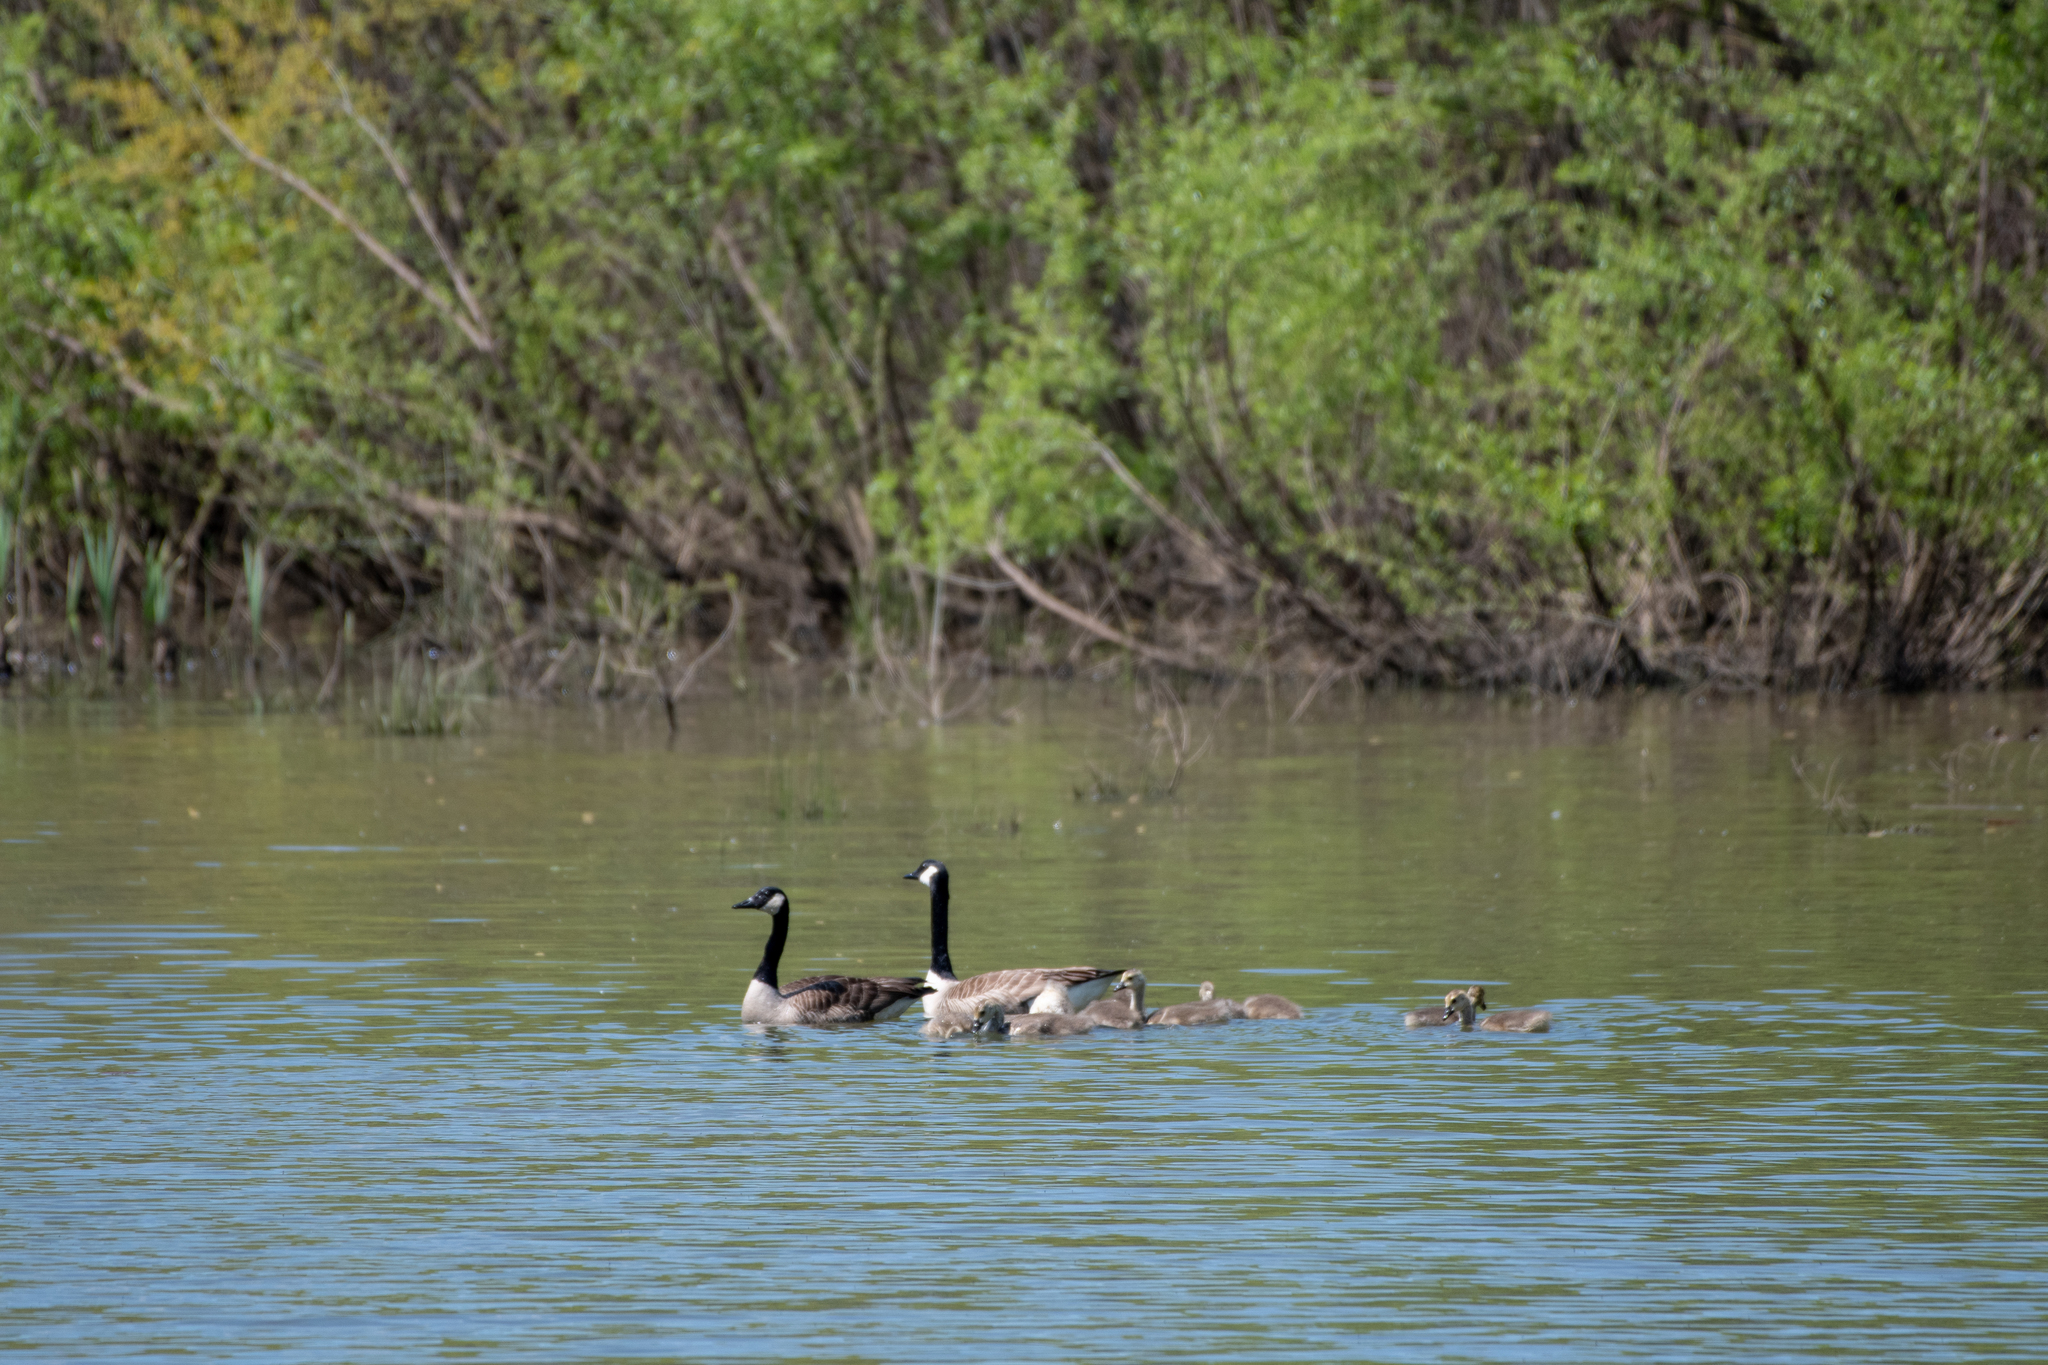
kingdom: Animalia
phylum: Chordata
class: Aves
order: Anseriformes
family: Anatidae
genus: Branta
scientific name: Branta canadensis
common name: Canada goose
